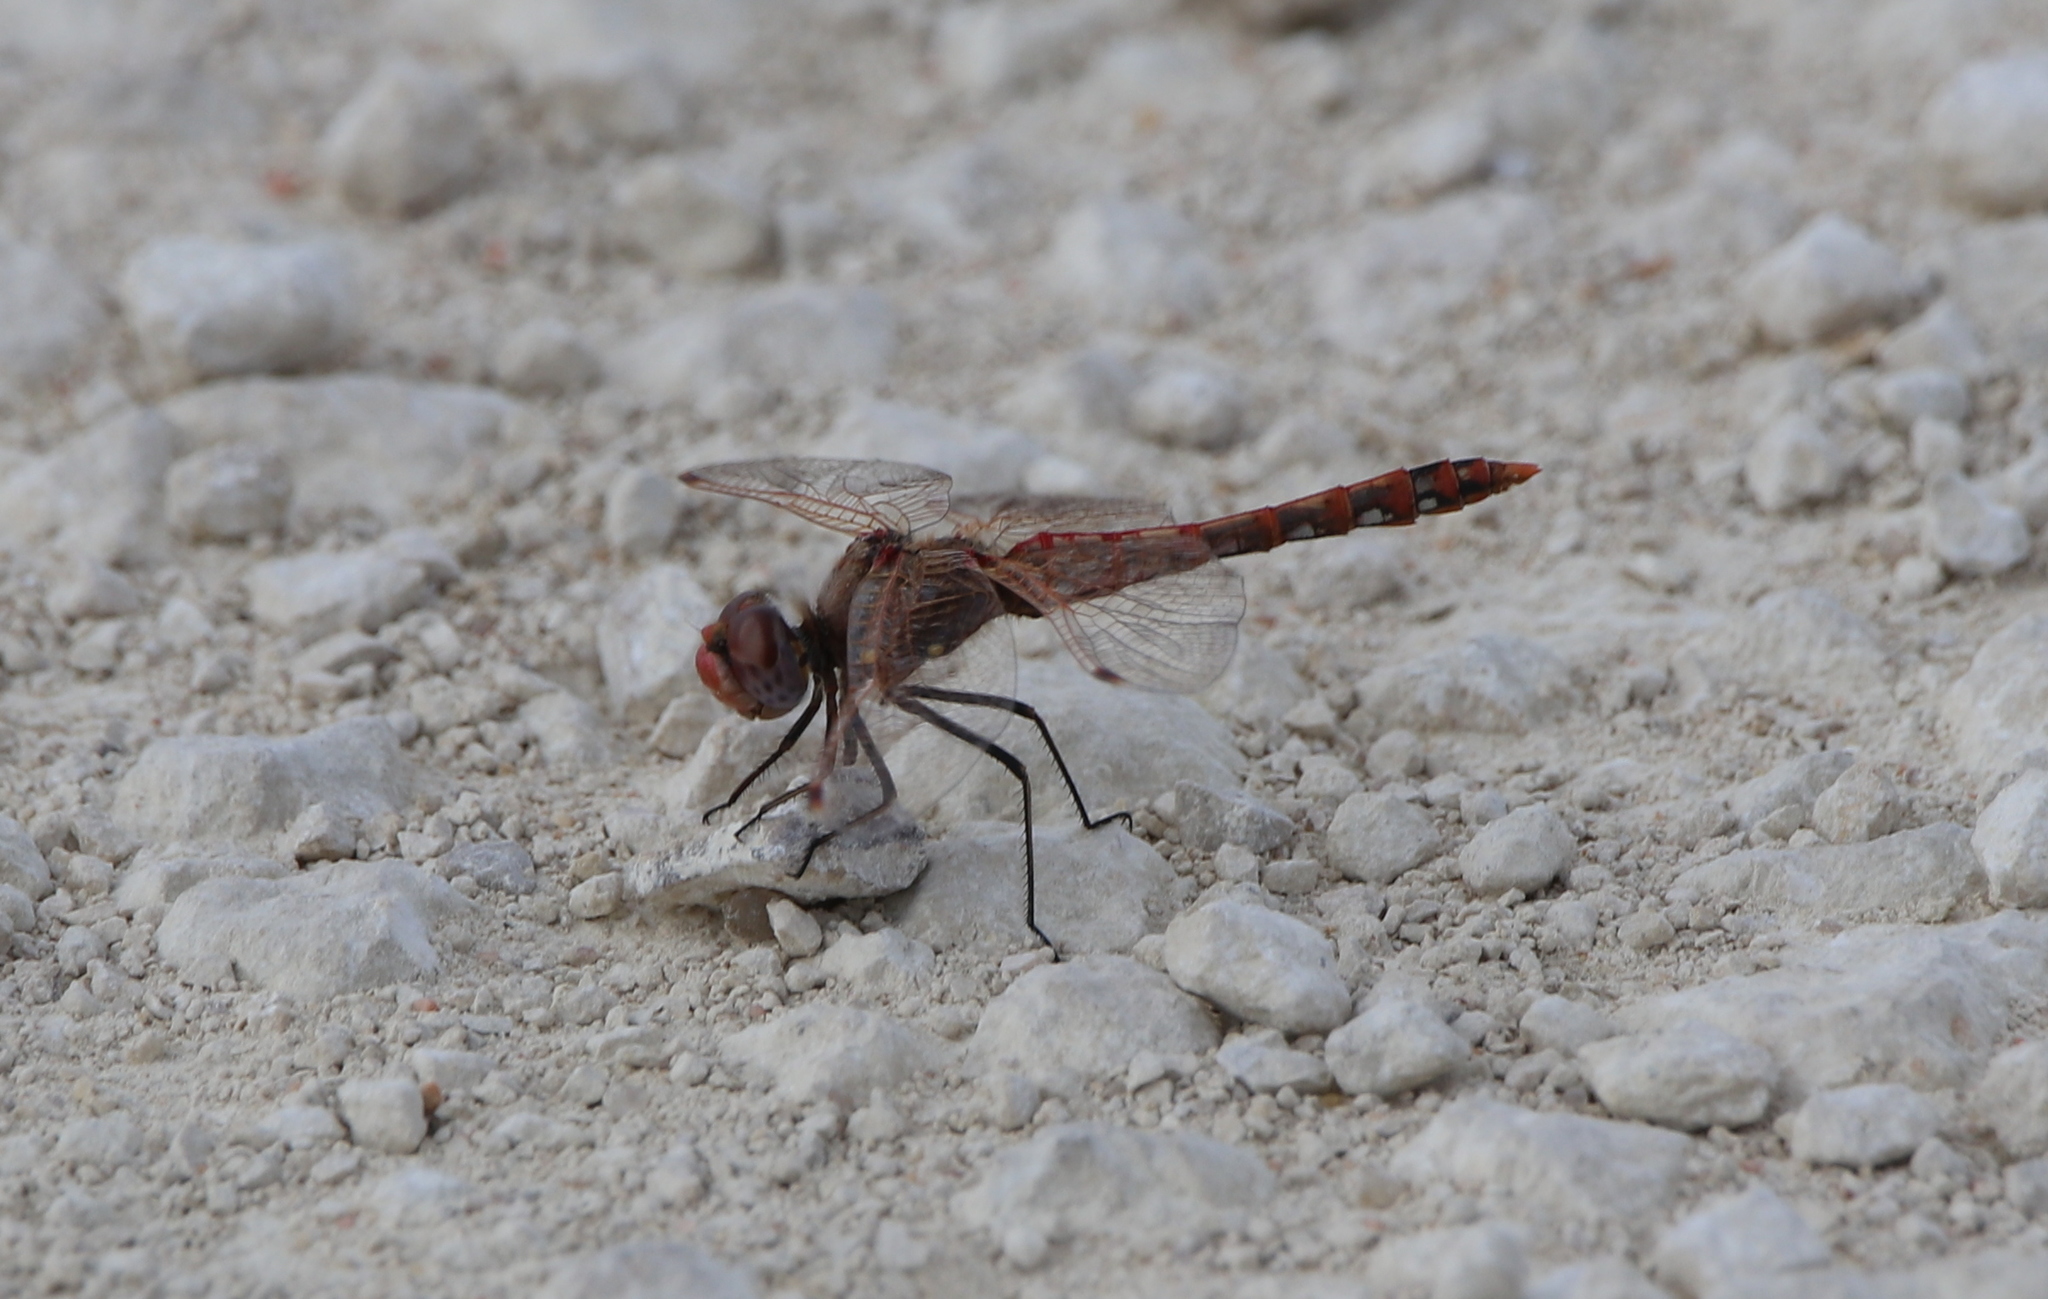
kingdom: Animalia
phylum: Arthropoda
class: Insecta
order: Odonata
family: Libellulidae
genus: Sympetrum
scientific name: Sympetrum corruptum
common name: Variegated meadowhawk
